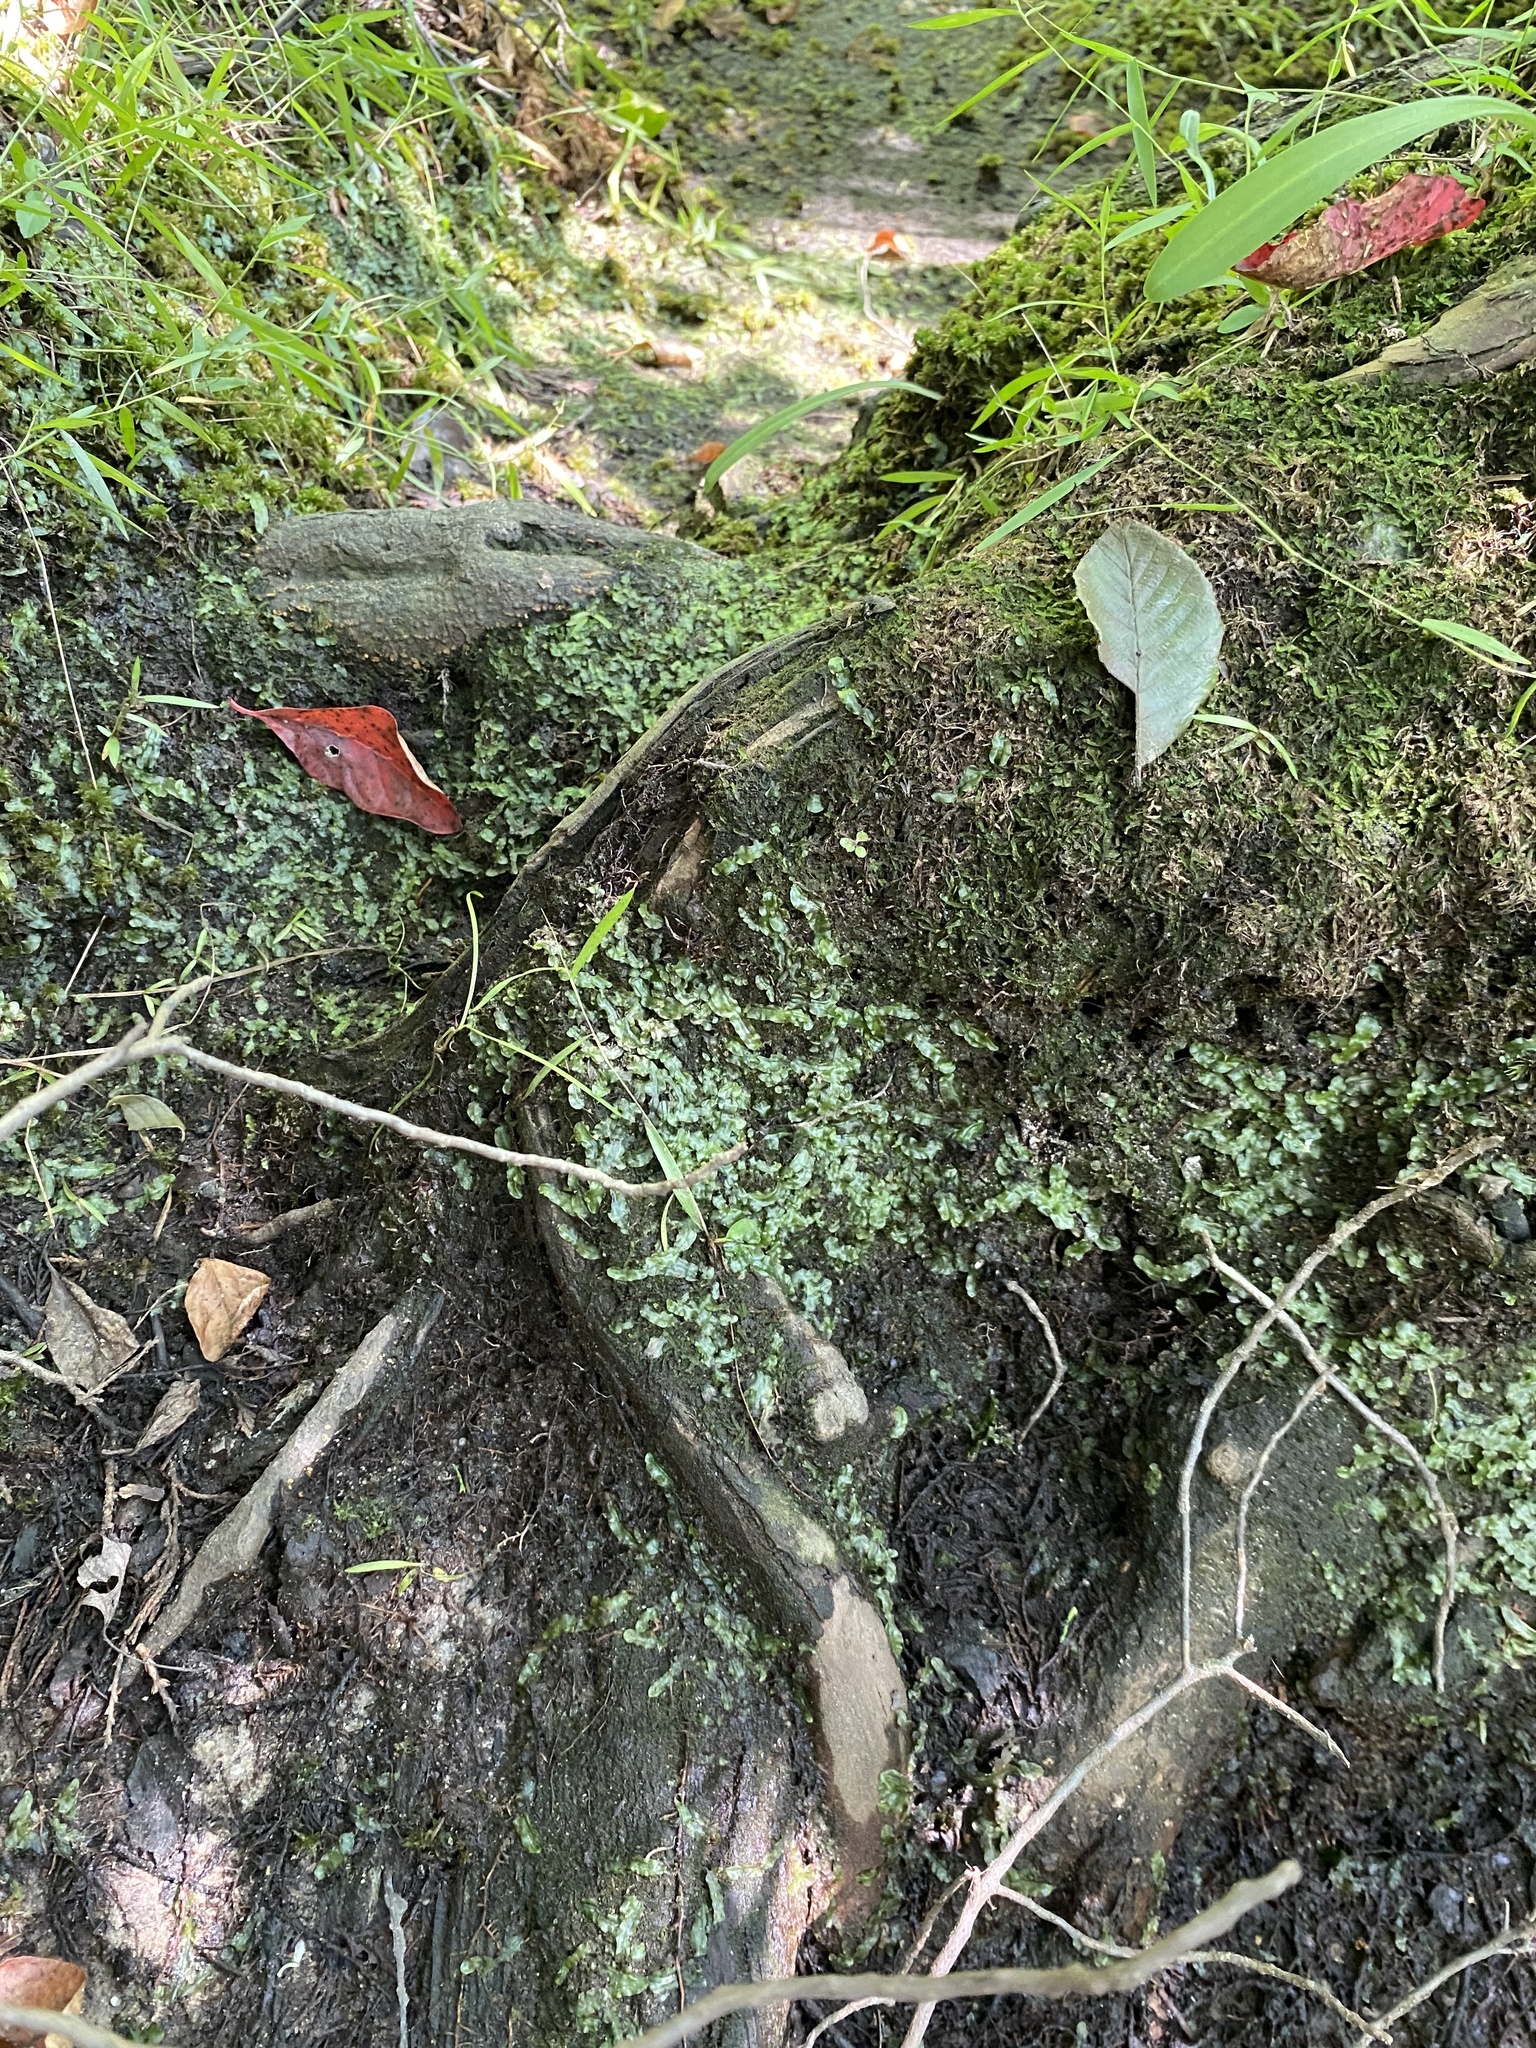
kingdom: Plantae
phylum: Marchantiophyta
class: Jungermanniopsida
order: Pallaviciniales
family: Pallaviciniaceae
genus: Pallavicinia
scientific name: Pallavicinia lyellii
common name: Veilwort
